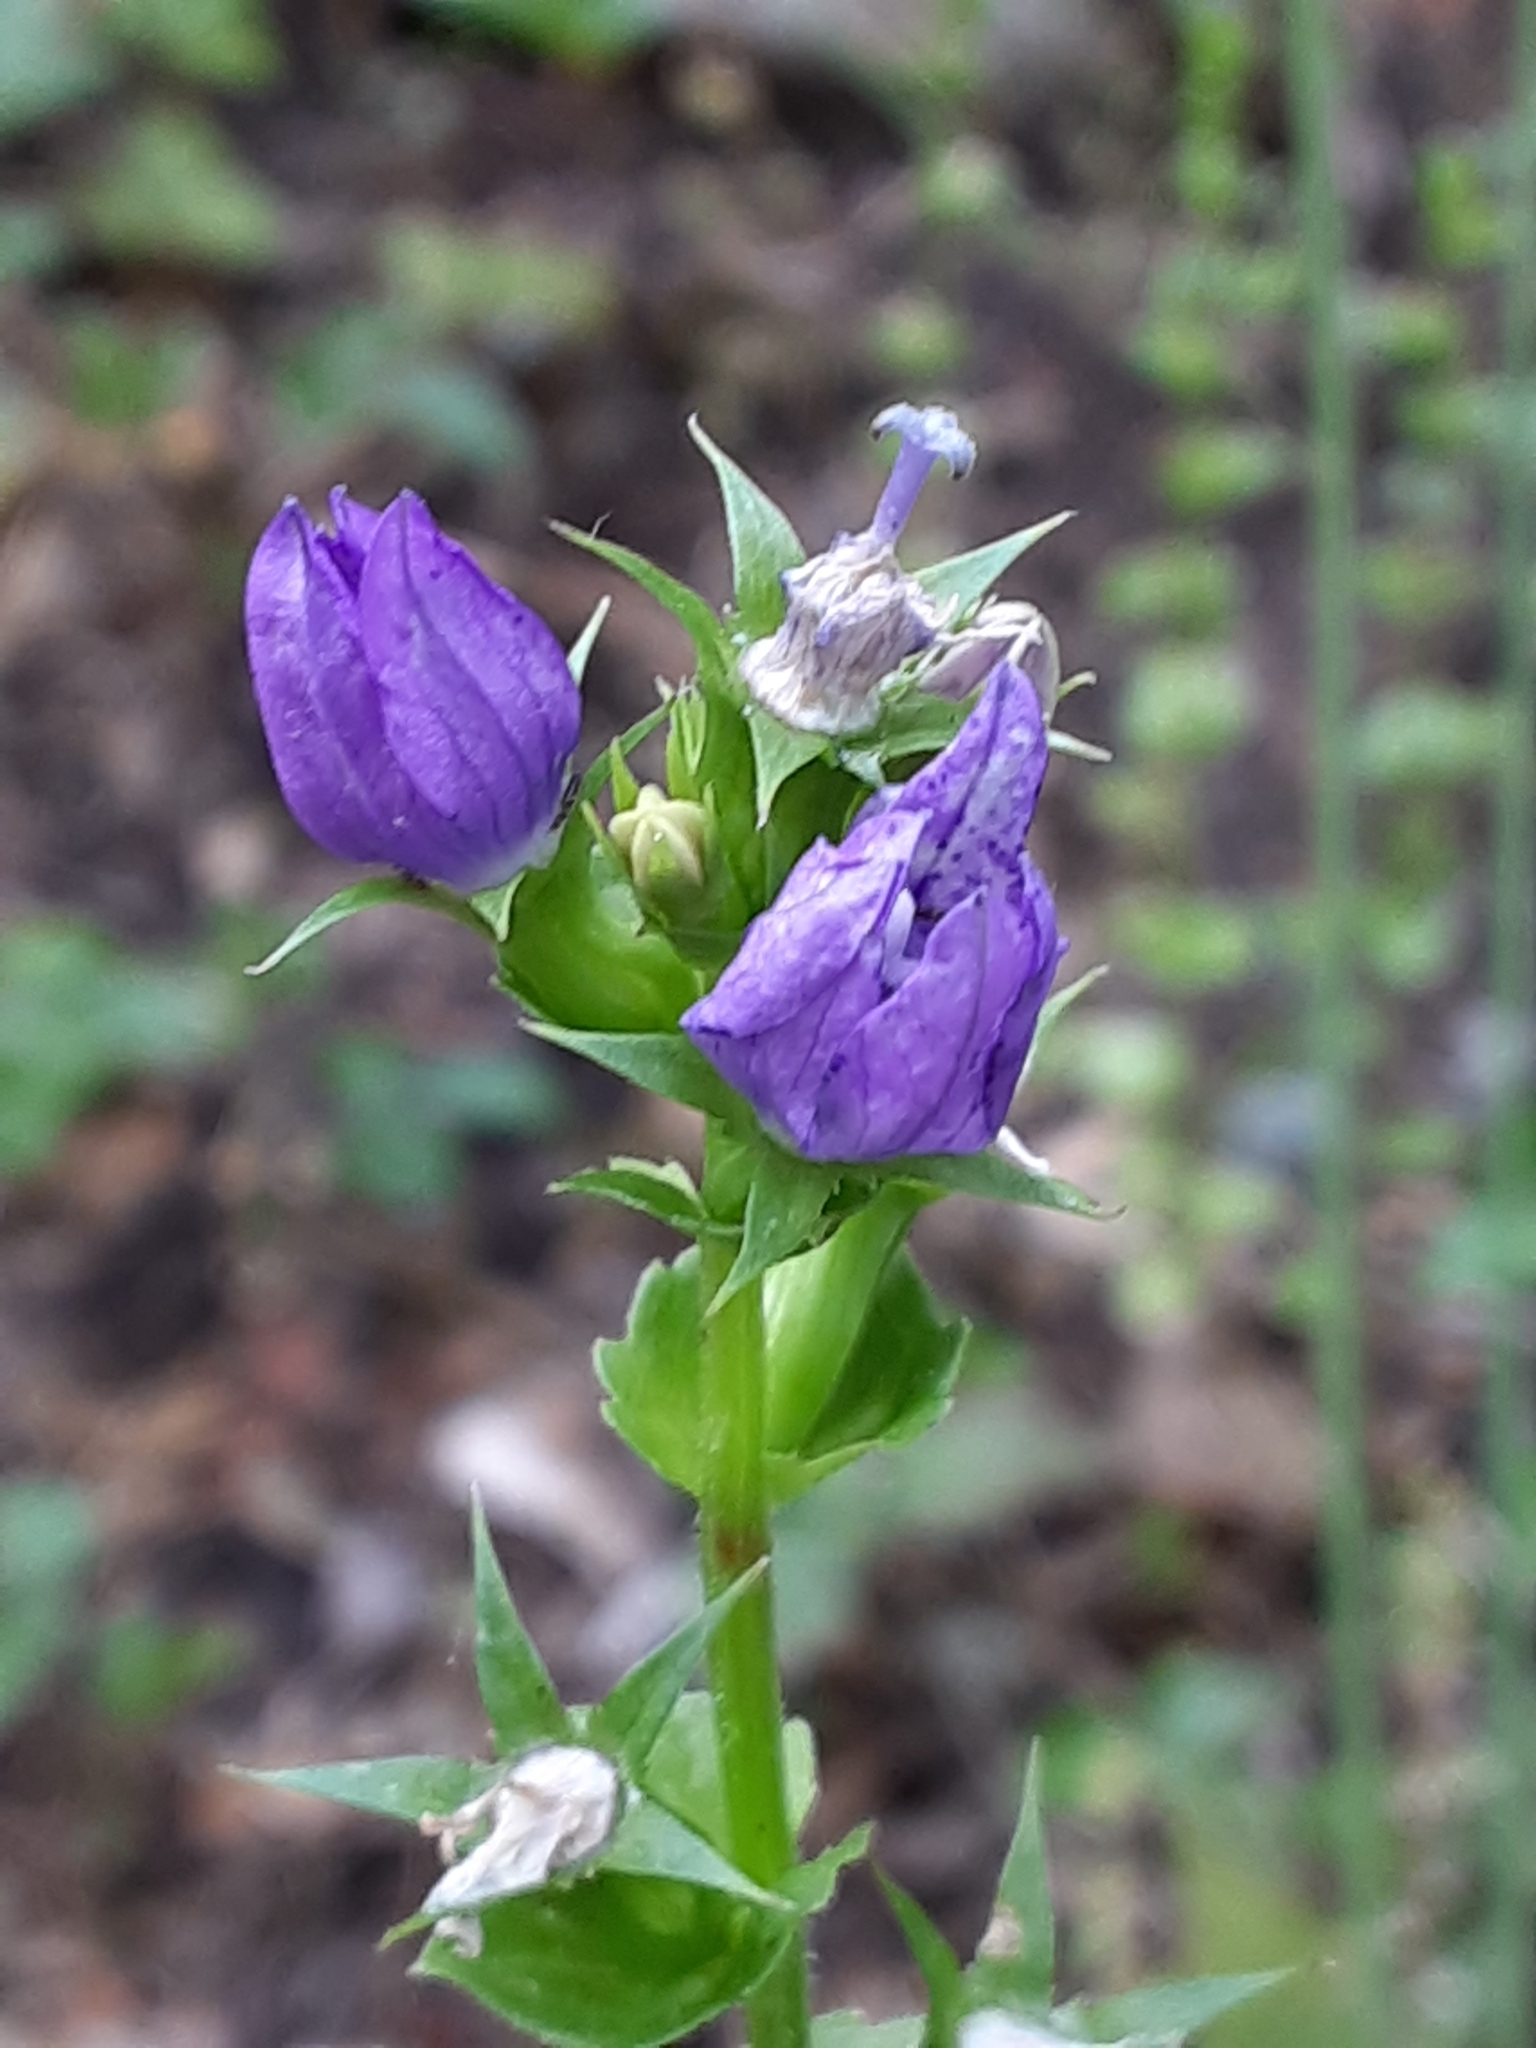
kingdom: Plantae
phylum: Tracheophyta
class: Magnoliopsida
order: Asterales
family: Campanulaceae
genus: Triodanis
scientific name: Triodanis perfoliata
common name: Clasping venus' looking-glass
